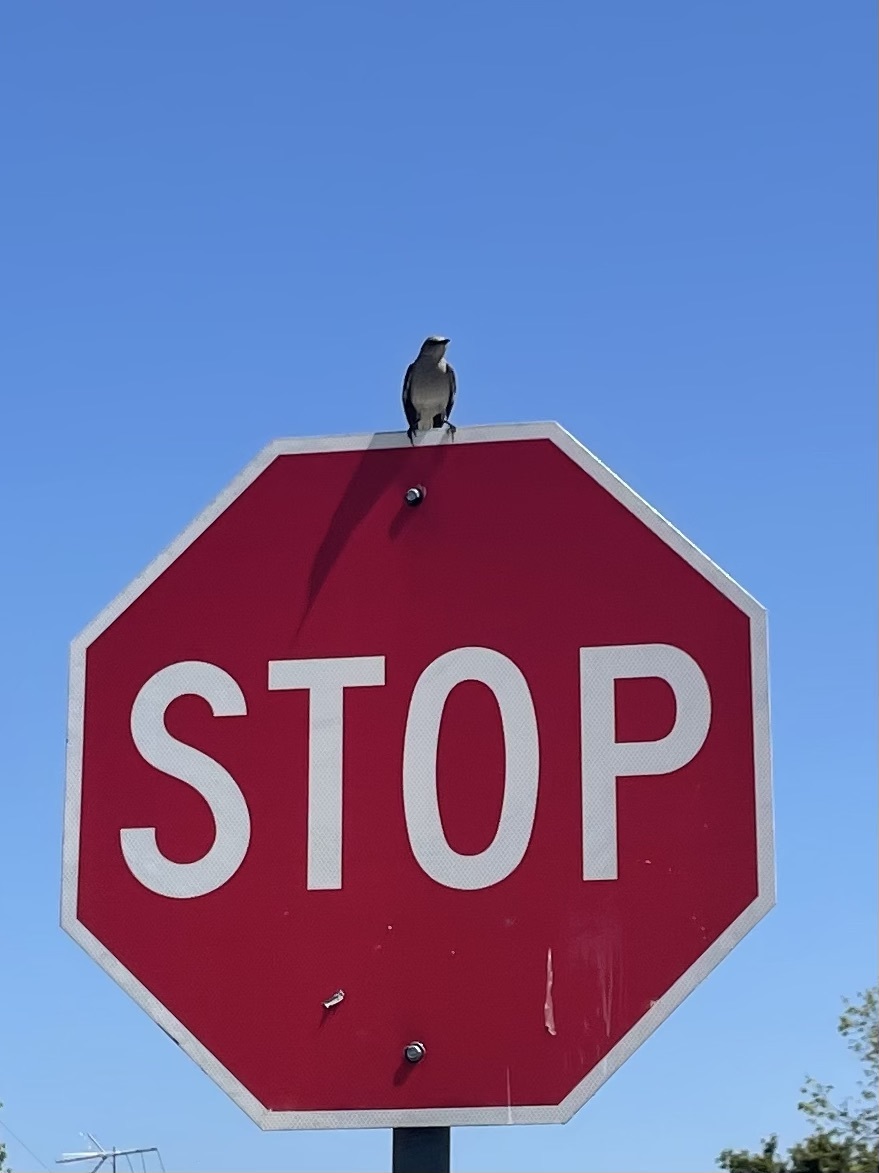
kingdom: Animalia
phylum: Chordata
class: Aves
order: Passeriformes
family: Mimidae
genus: Mimus
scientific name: Mimus polyglottos
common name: Northern mockingbird
